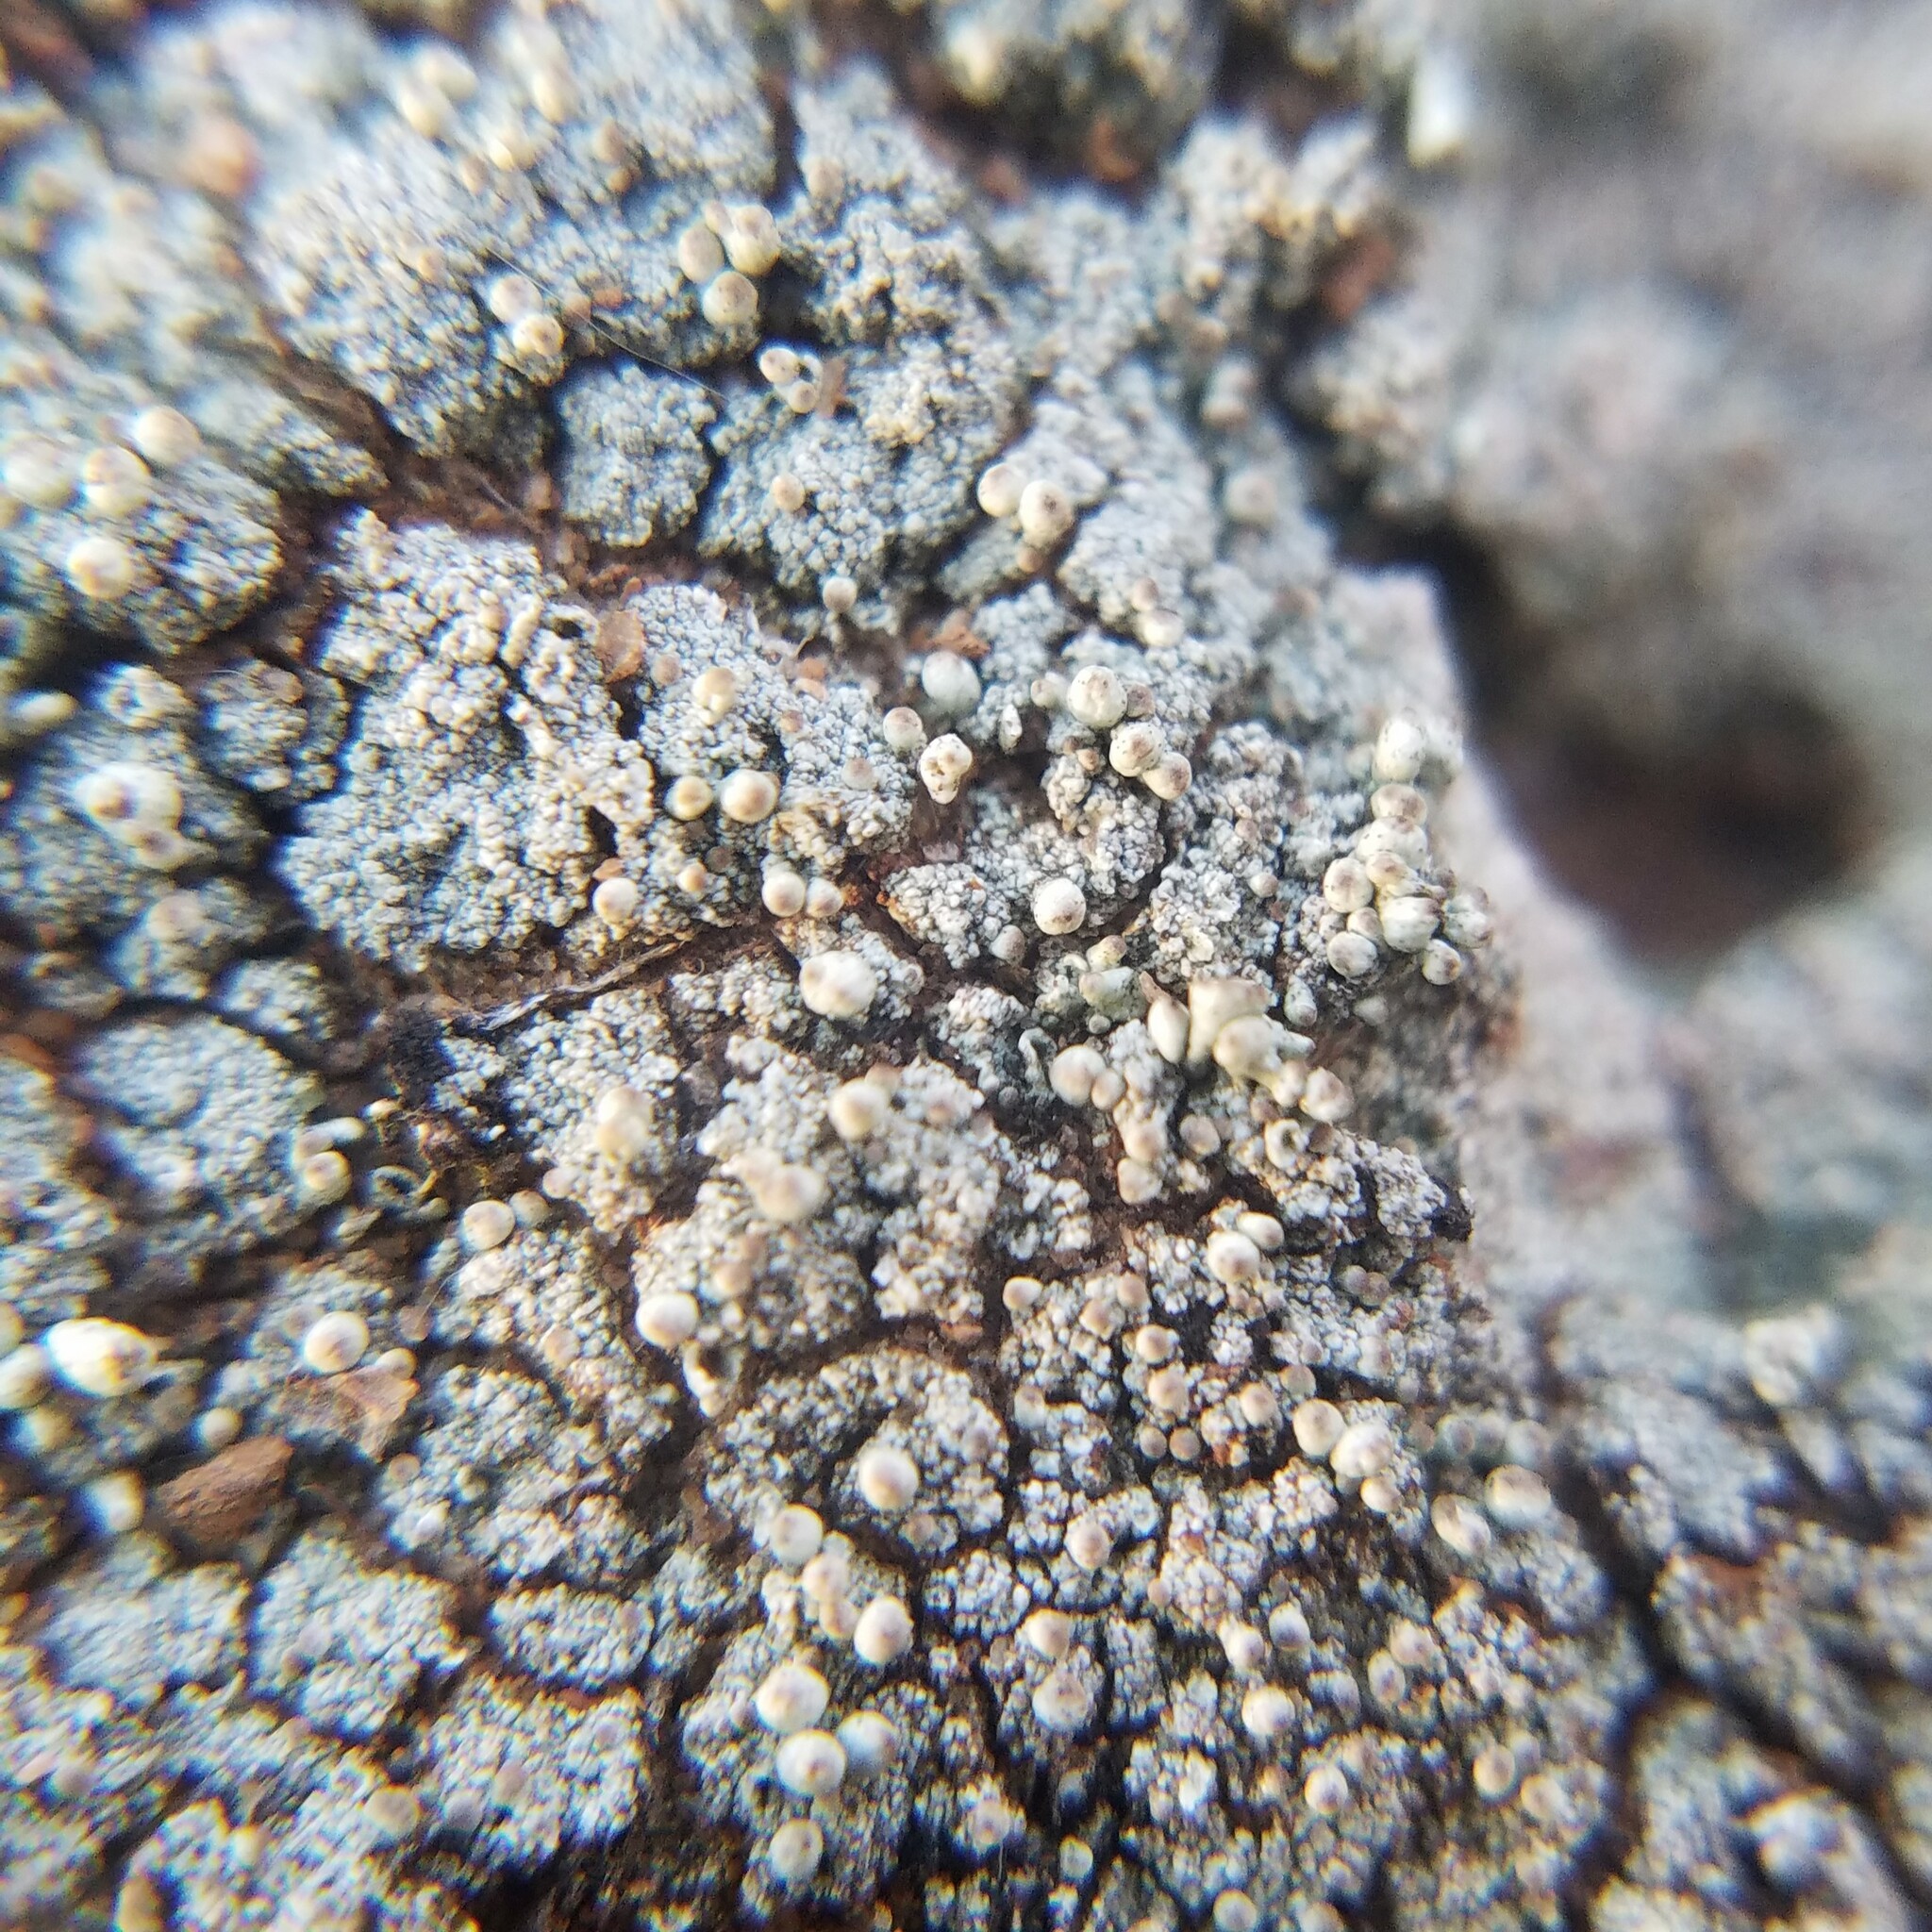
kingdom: Fungi
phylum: Ascomycota
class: Lecanoromycetes
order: Lecanorales
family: Cladoniaceae
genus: Pycnothelia
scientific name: Pycnothelia papillaria
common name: Nipple lichen
